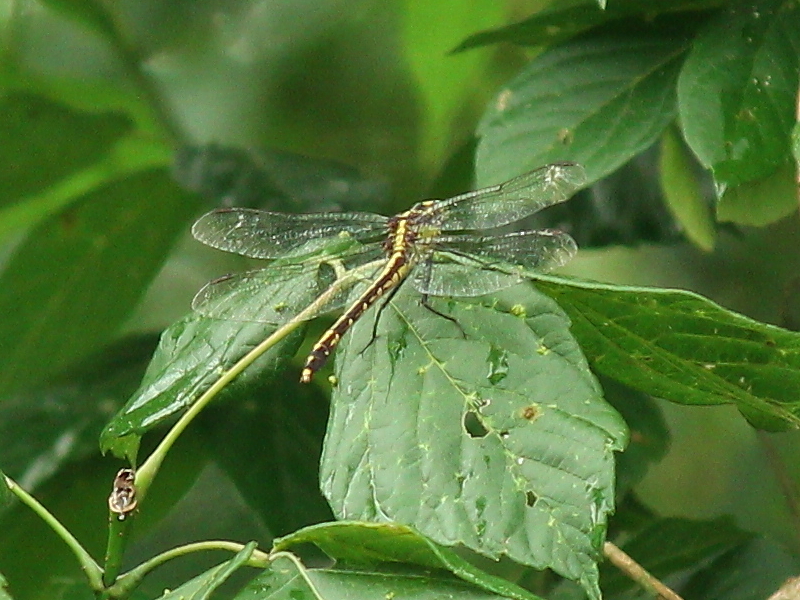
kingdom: Animalia
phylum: Arthropoda
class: Insecta
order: Odonata
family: Gomphidae
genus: Dromogomphus
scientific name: Dromogomphus spinosus
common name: Black-shouldered spinyleg
